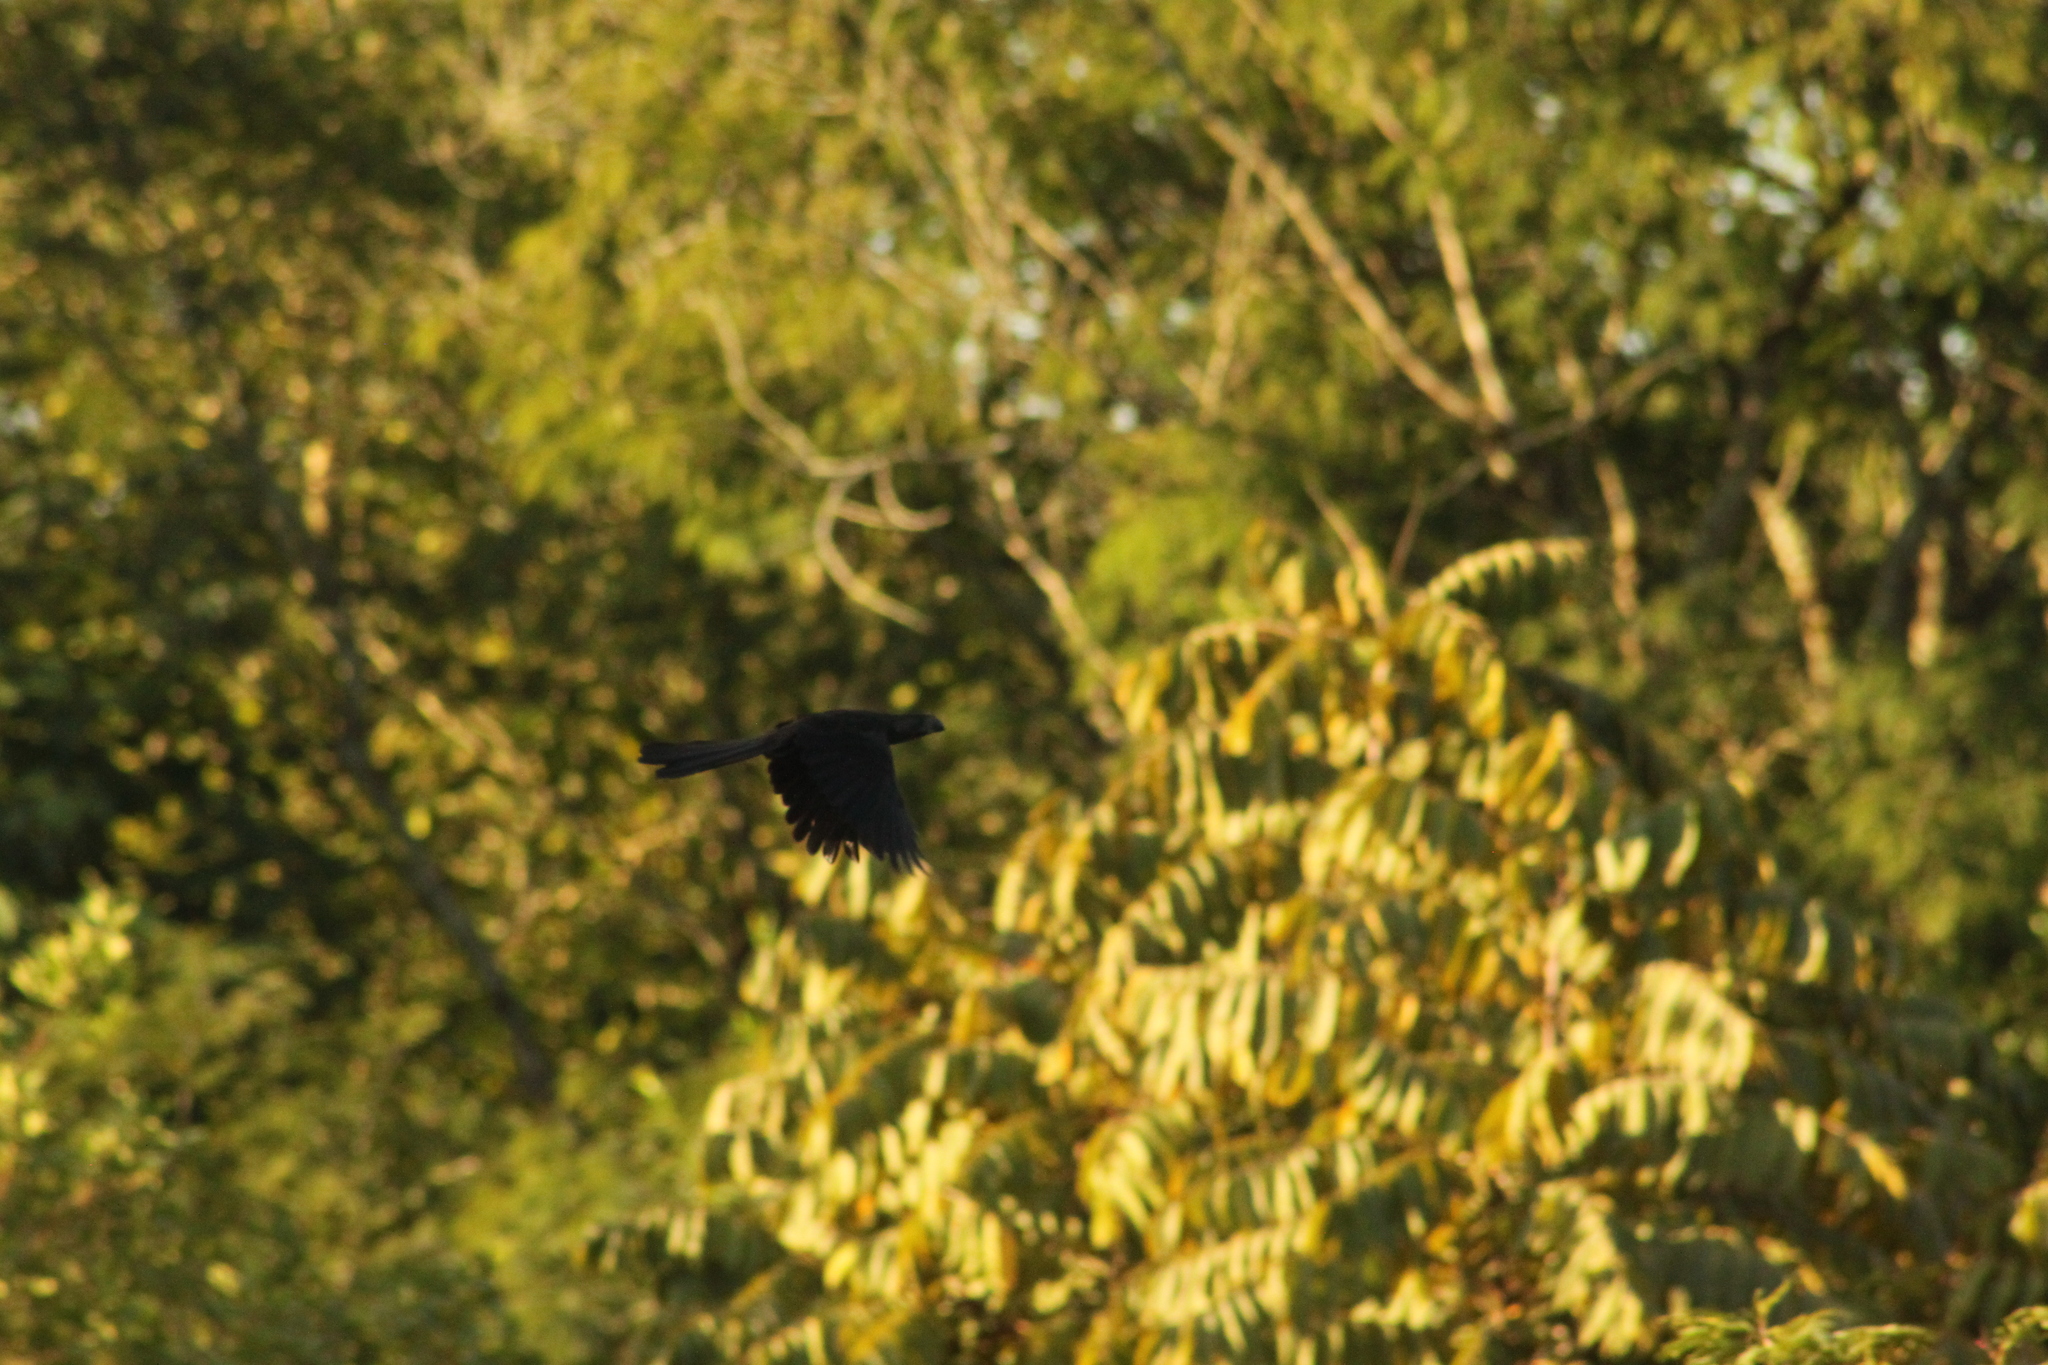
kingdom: Animalia
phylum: Chordata
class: Aves
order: Cuculiformes
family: Cuculidae
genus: Crotophaga
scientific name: Crotophaga ani
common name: Smooth-billed ani
